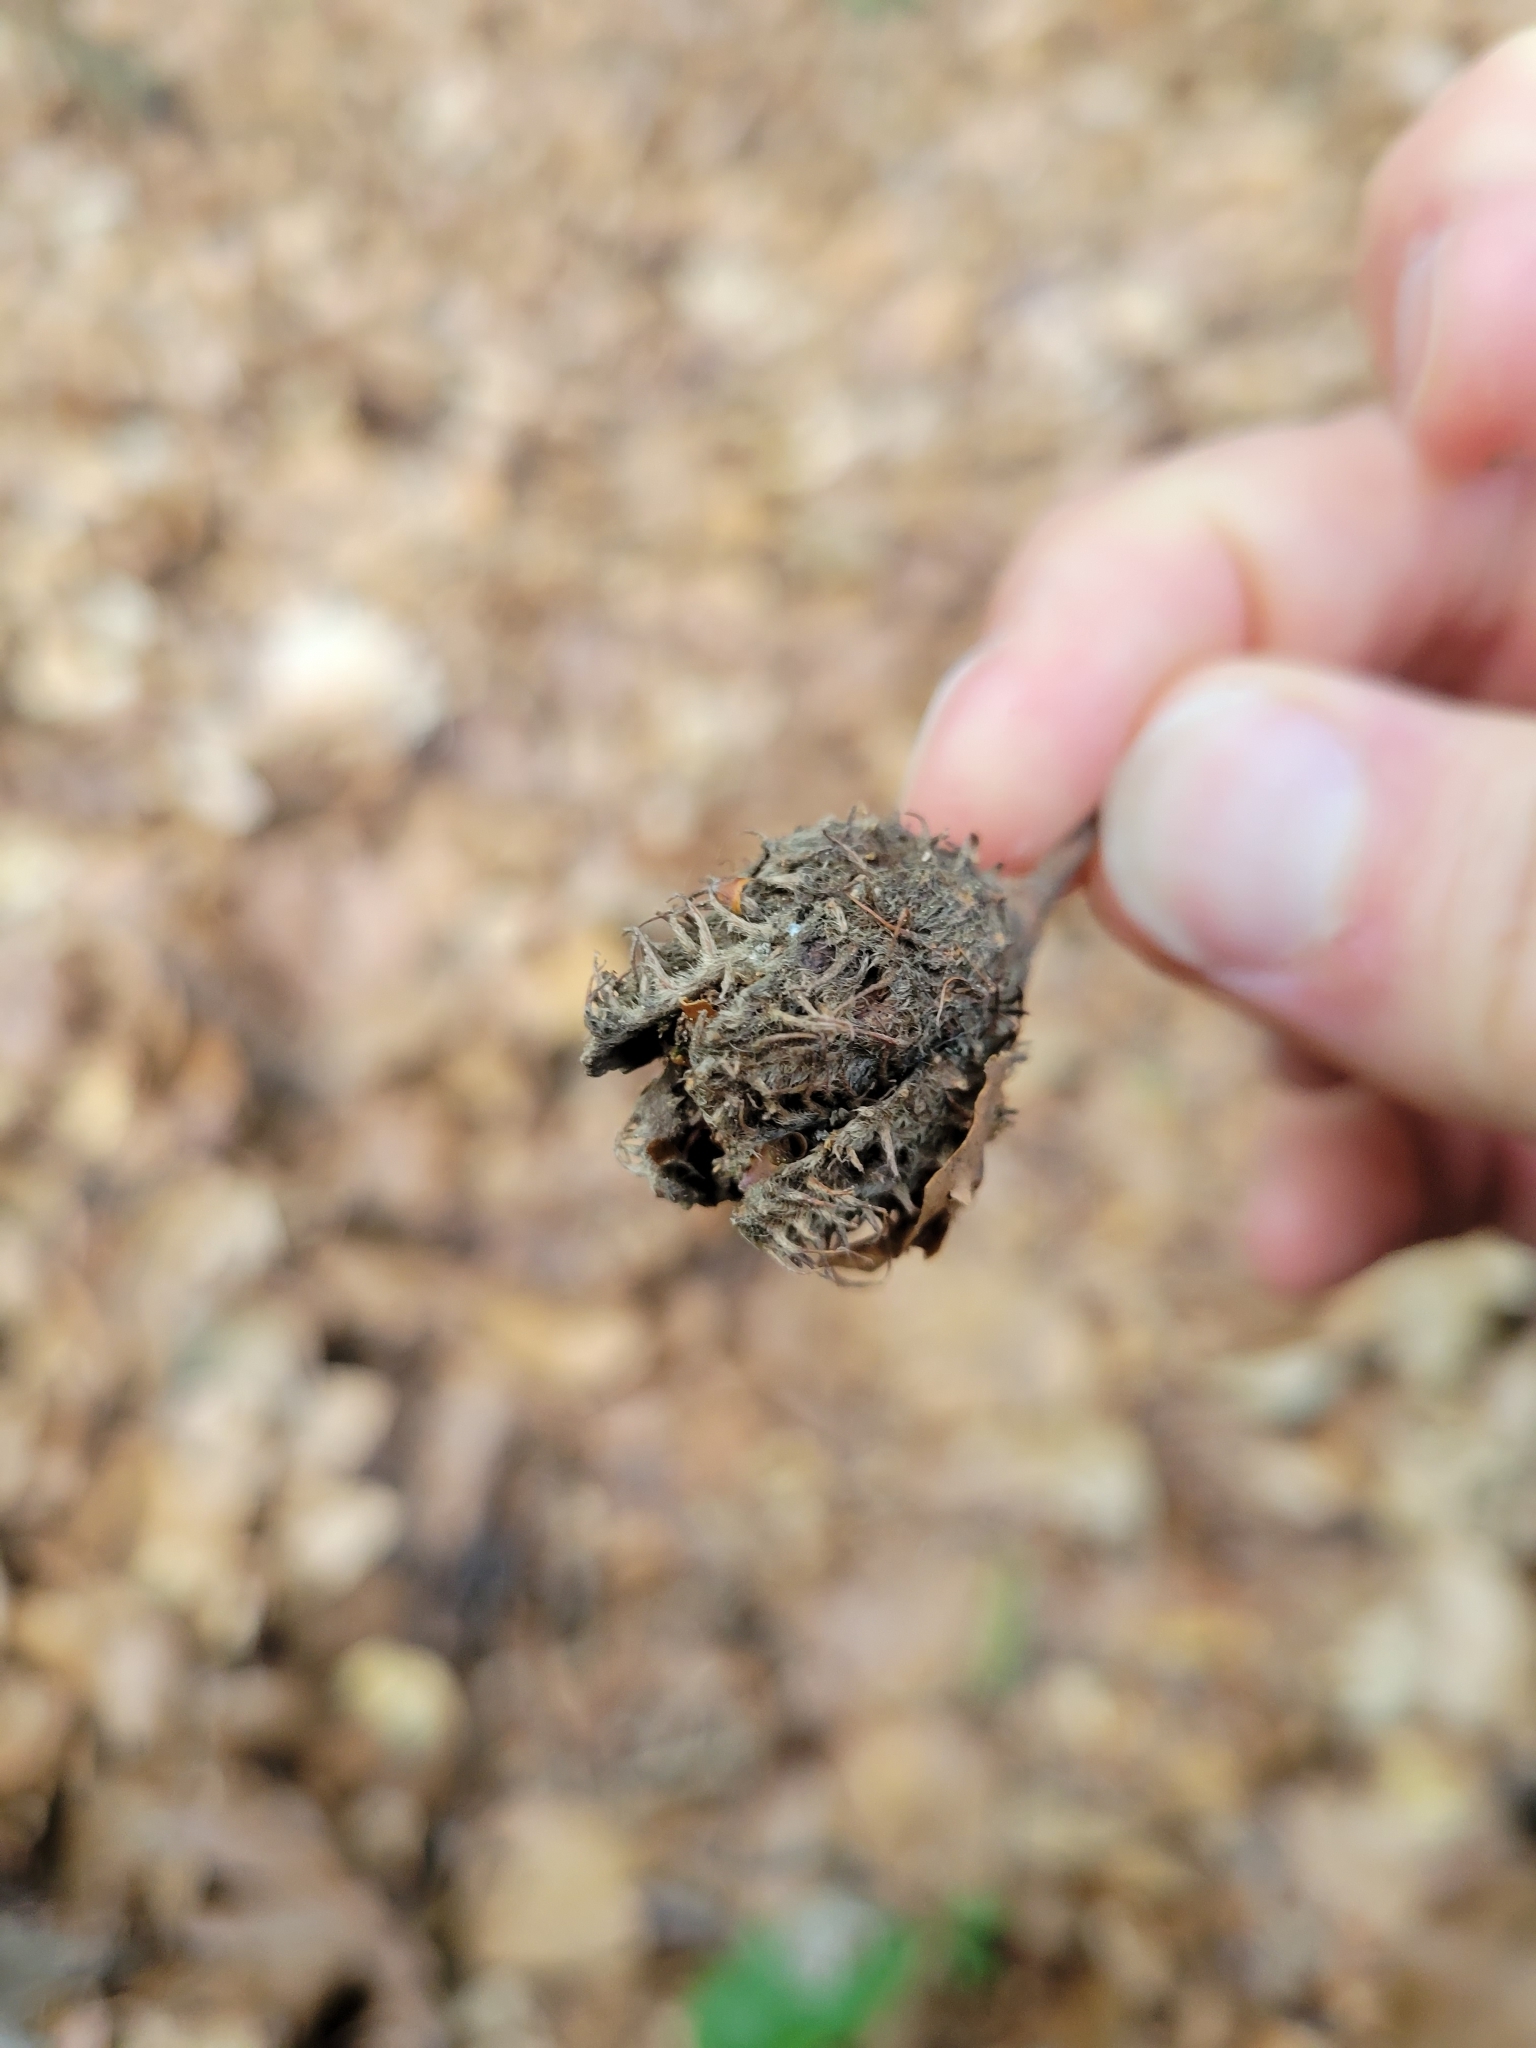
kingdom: Plantae
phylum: Tracheophyta
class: Magnoliopsida
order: Fagales
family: Fagaceae
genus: Fagus
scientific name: Fagus sylvatica
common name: Beech
